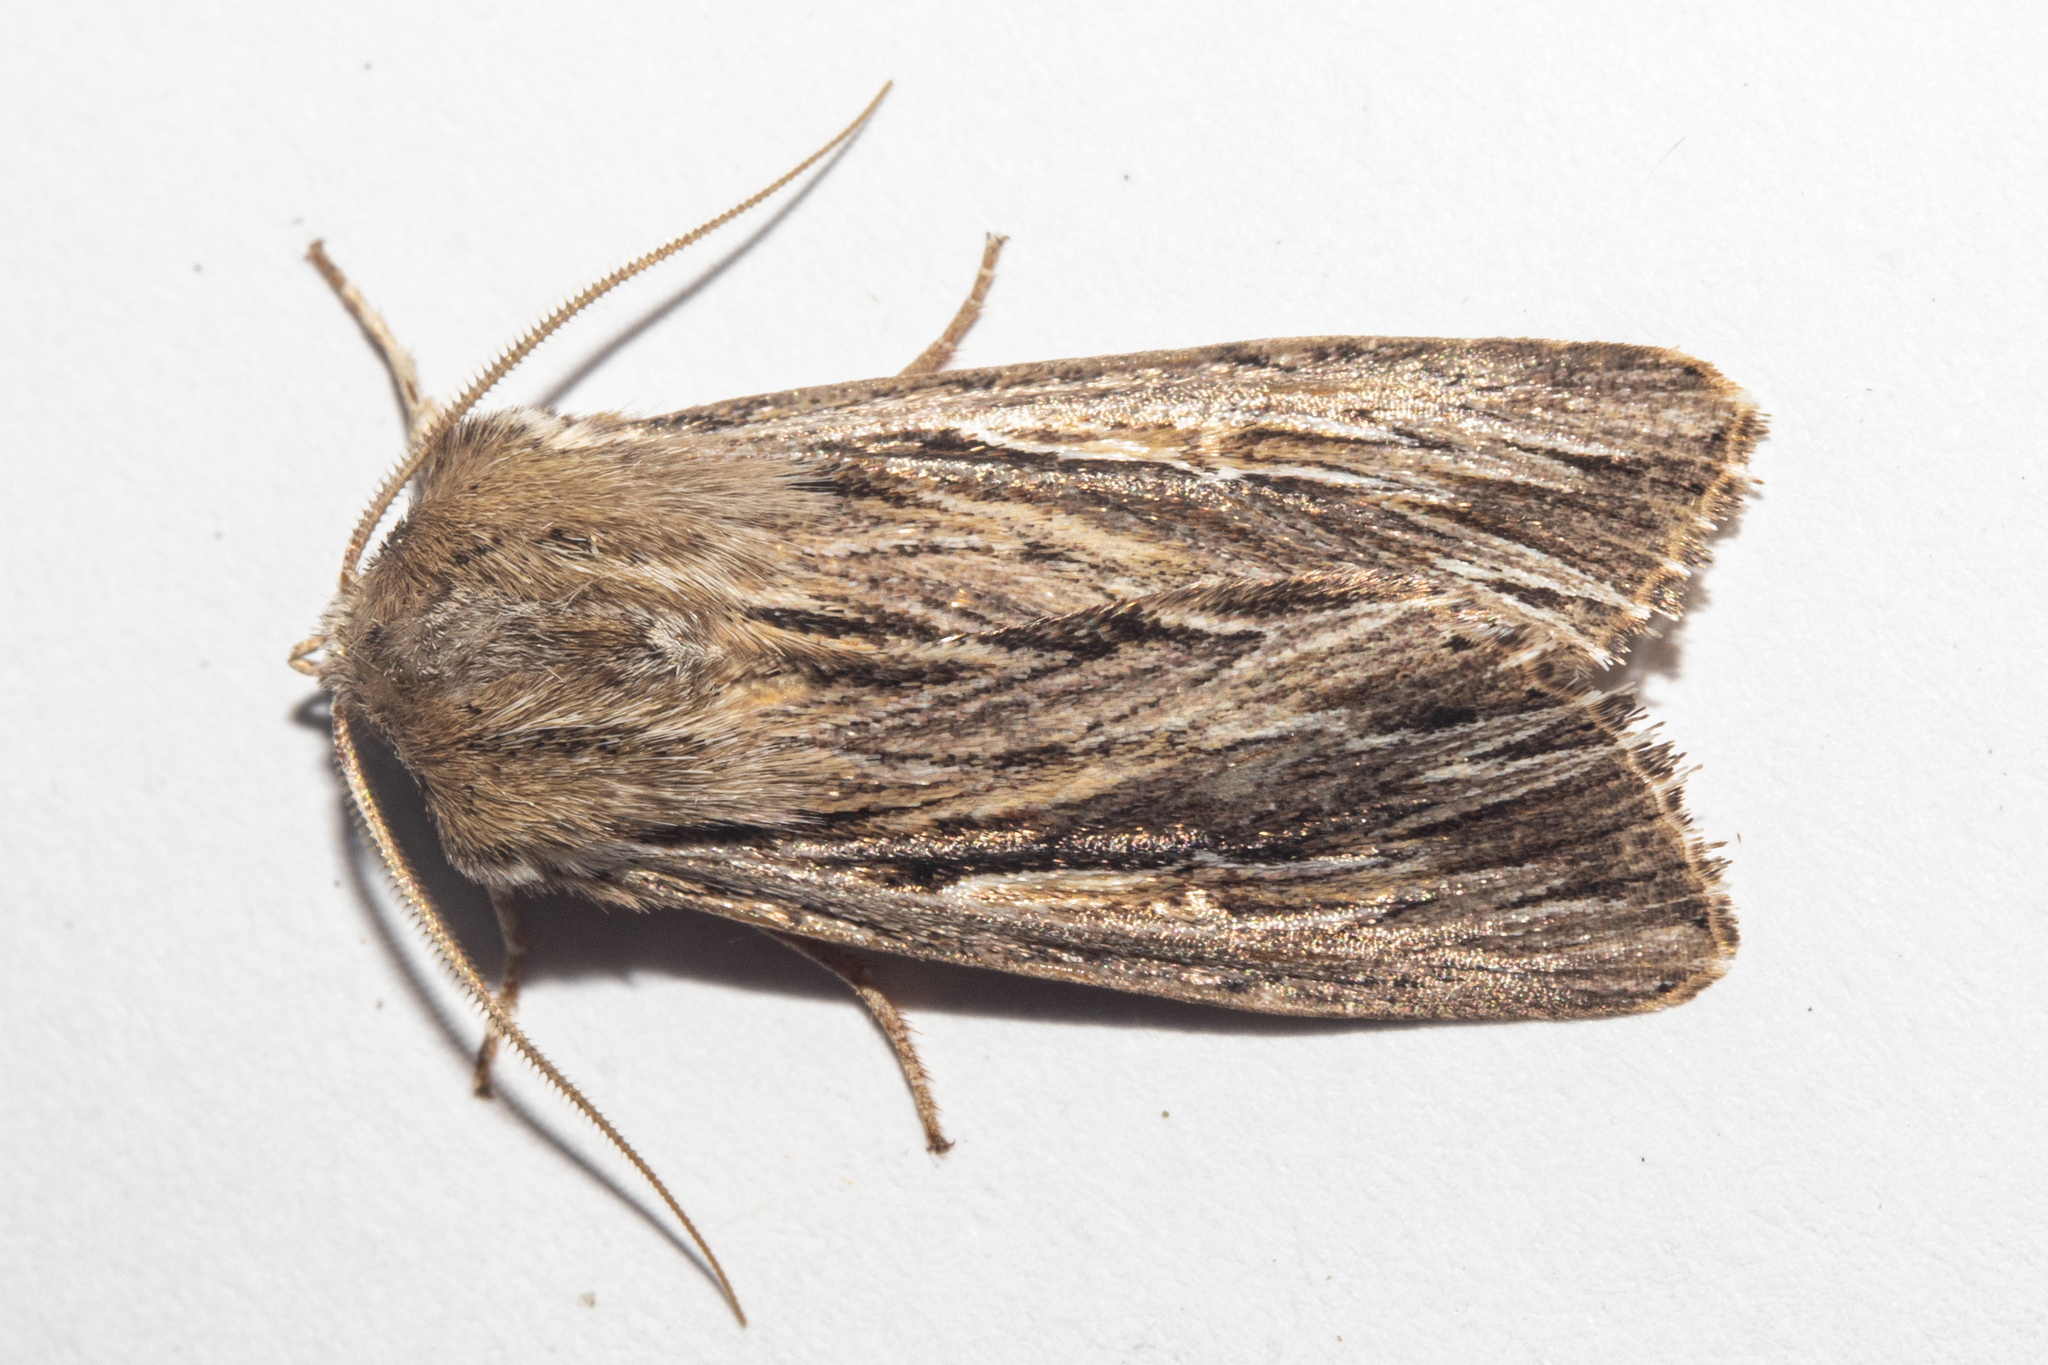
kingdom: Animalia
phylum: Arthropoda
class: Insecta
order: Lepidoptera
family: Noctuidae
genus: Persectania
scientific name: Persectania aversa
